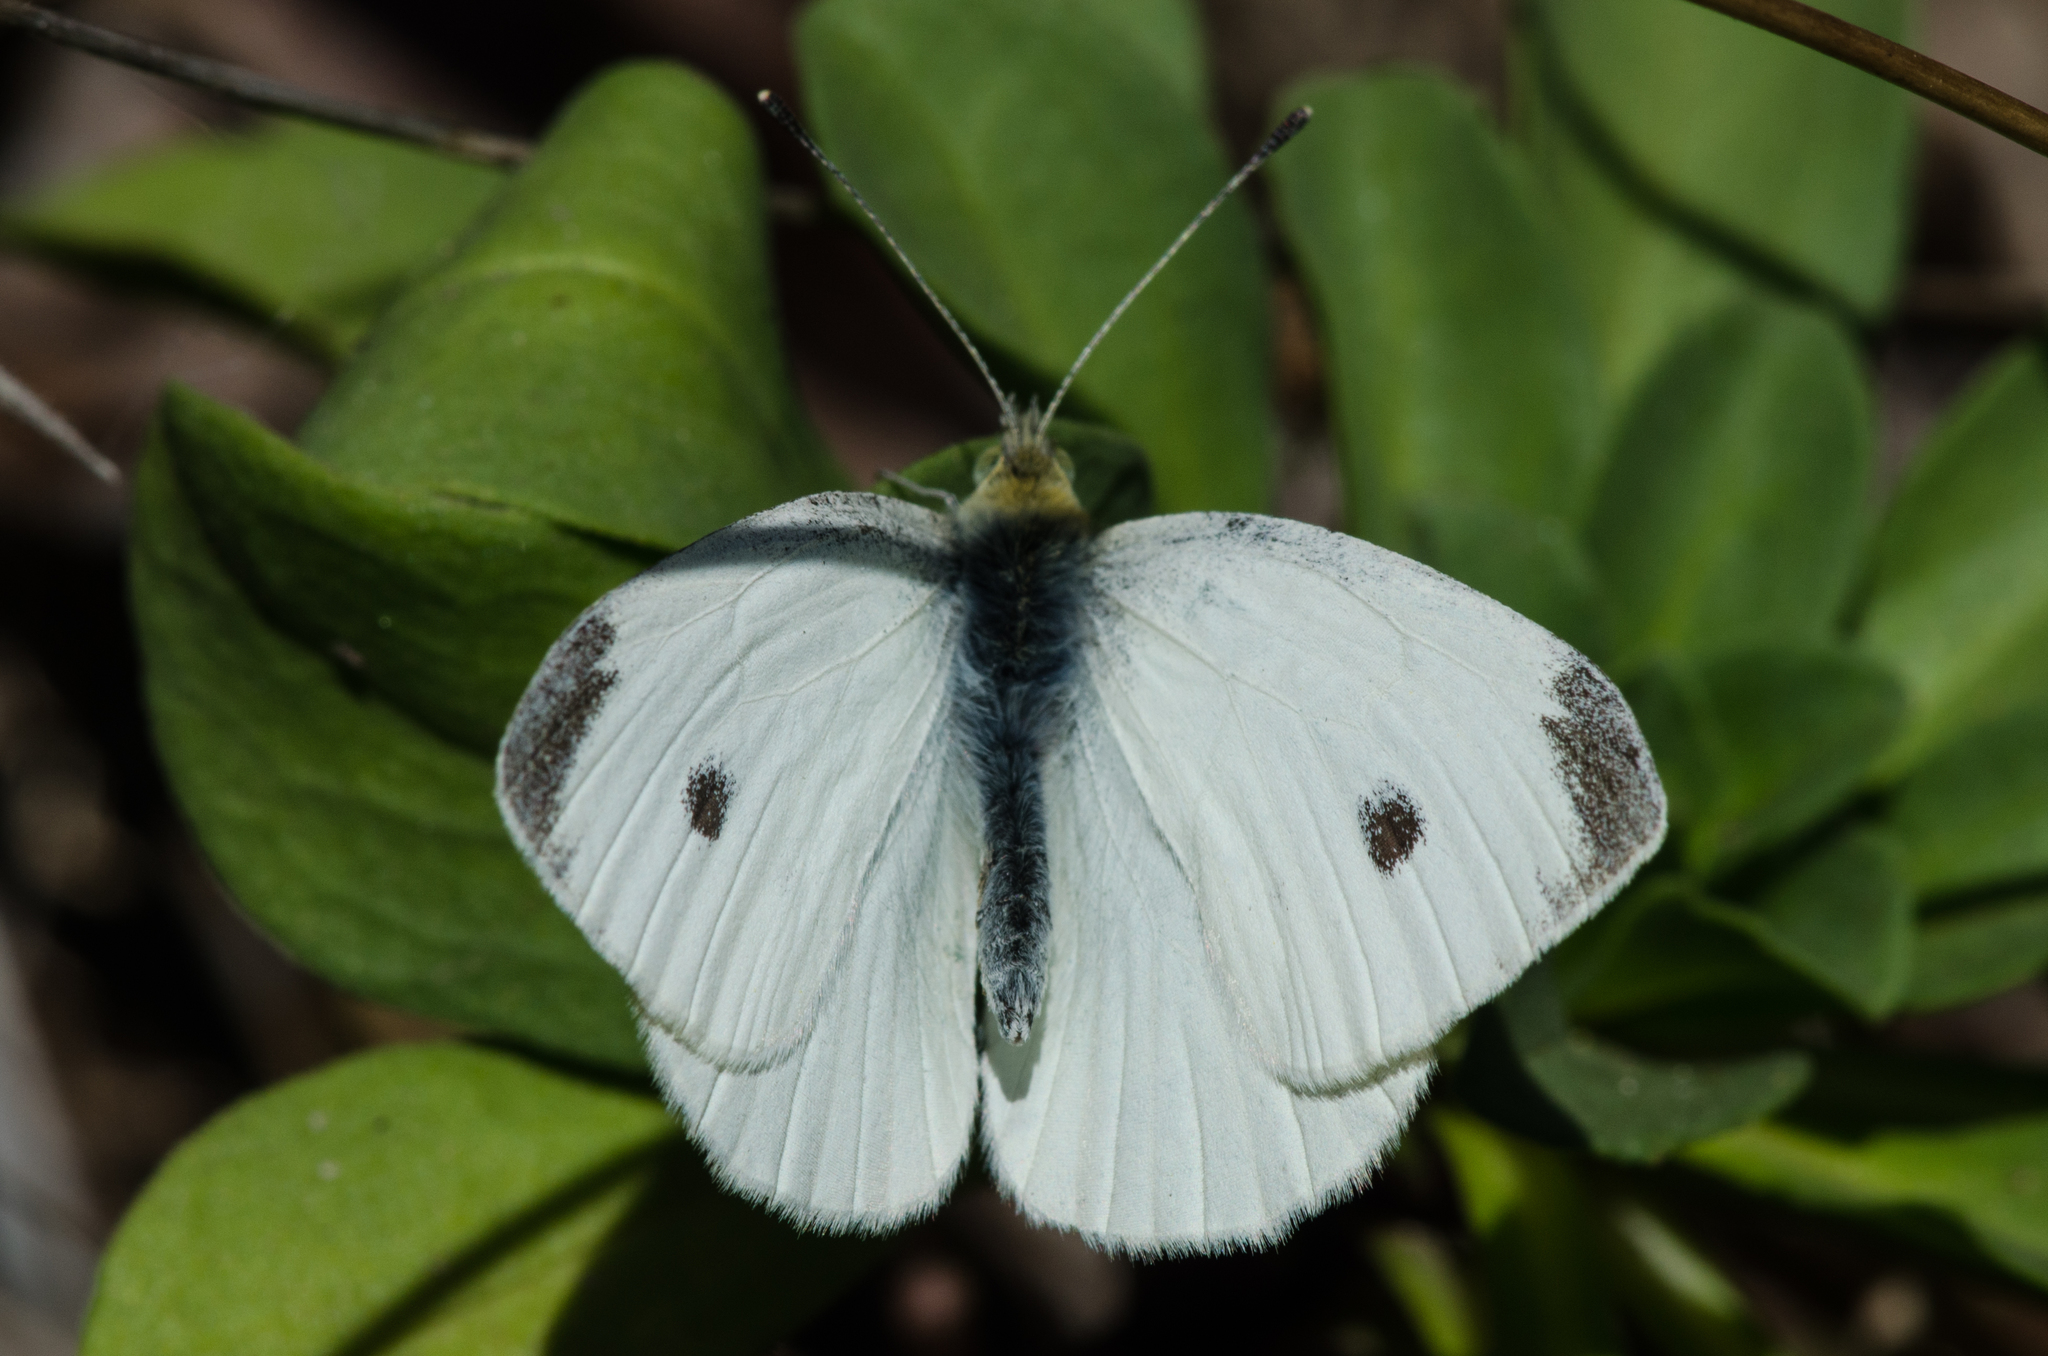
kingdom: Animalia
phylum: Arthropoda
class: Insecta
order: Lepidoptera
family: Pieridae
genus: Pieris
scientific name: Pieris rapae
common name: Small white
